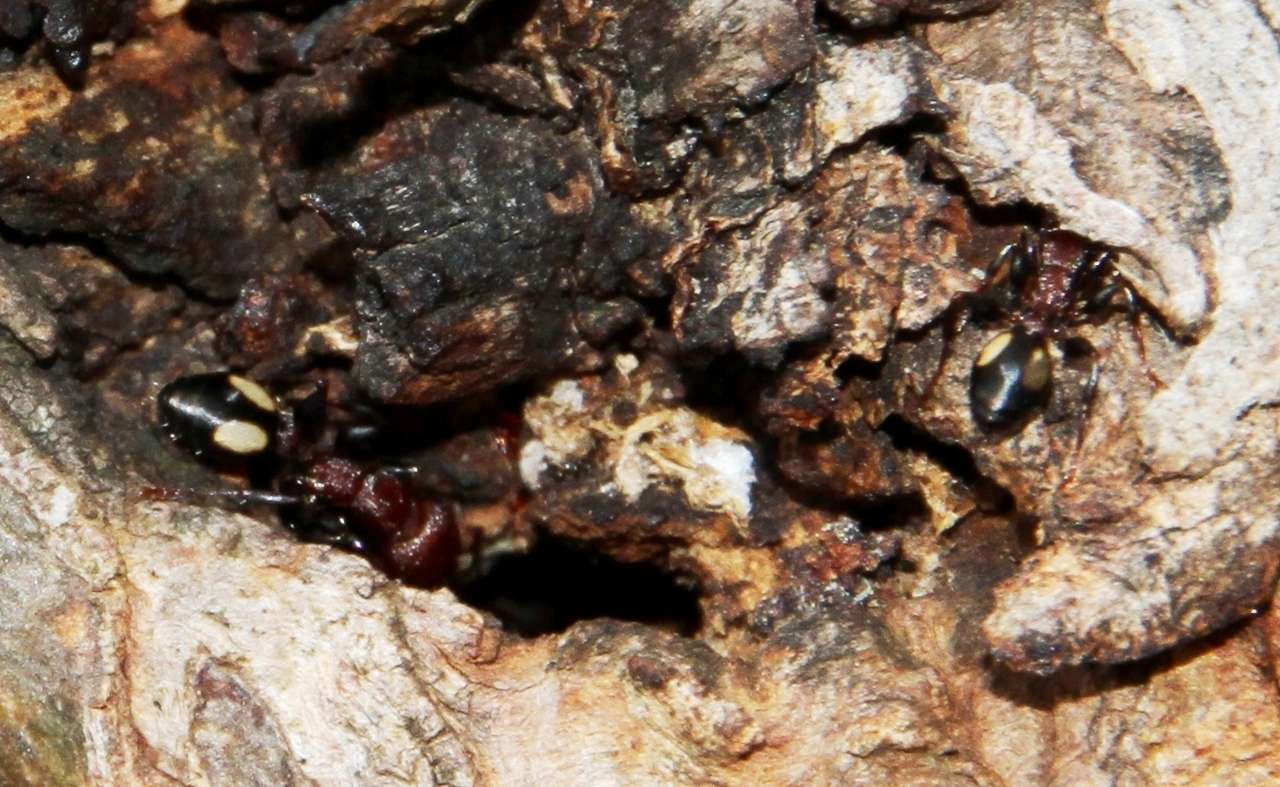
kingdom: Animalia
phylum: Arthropoda
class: Insecta
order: Hymenoptera
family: Formicidae
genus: Podomyrma
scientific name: Podomyrma adelaidae
